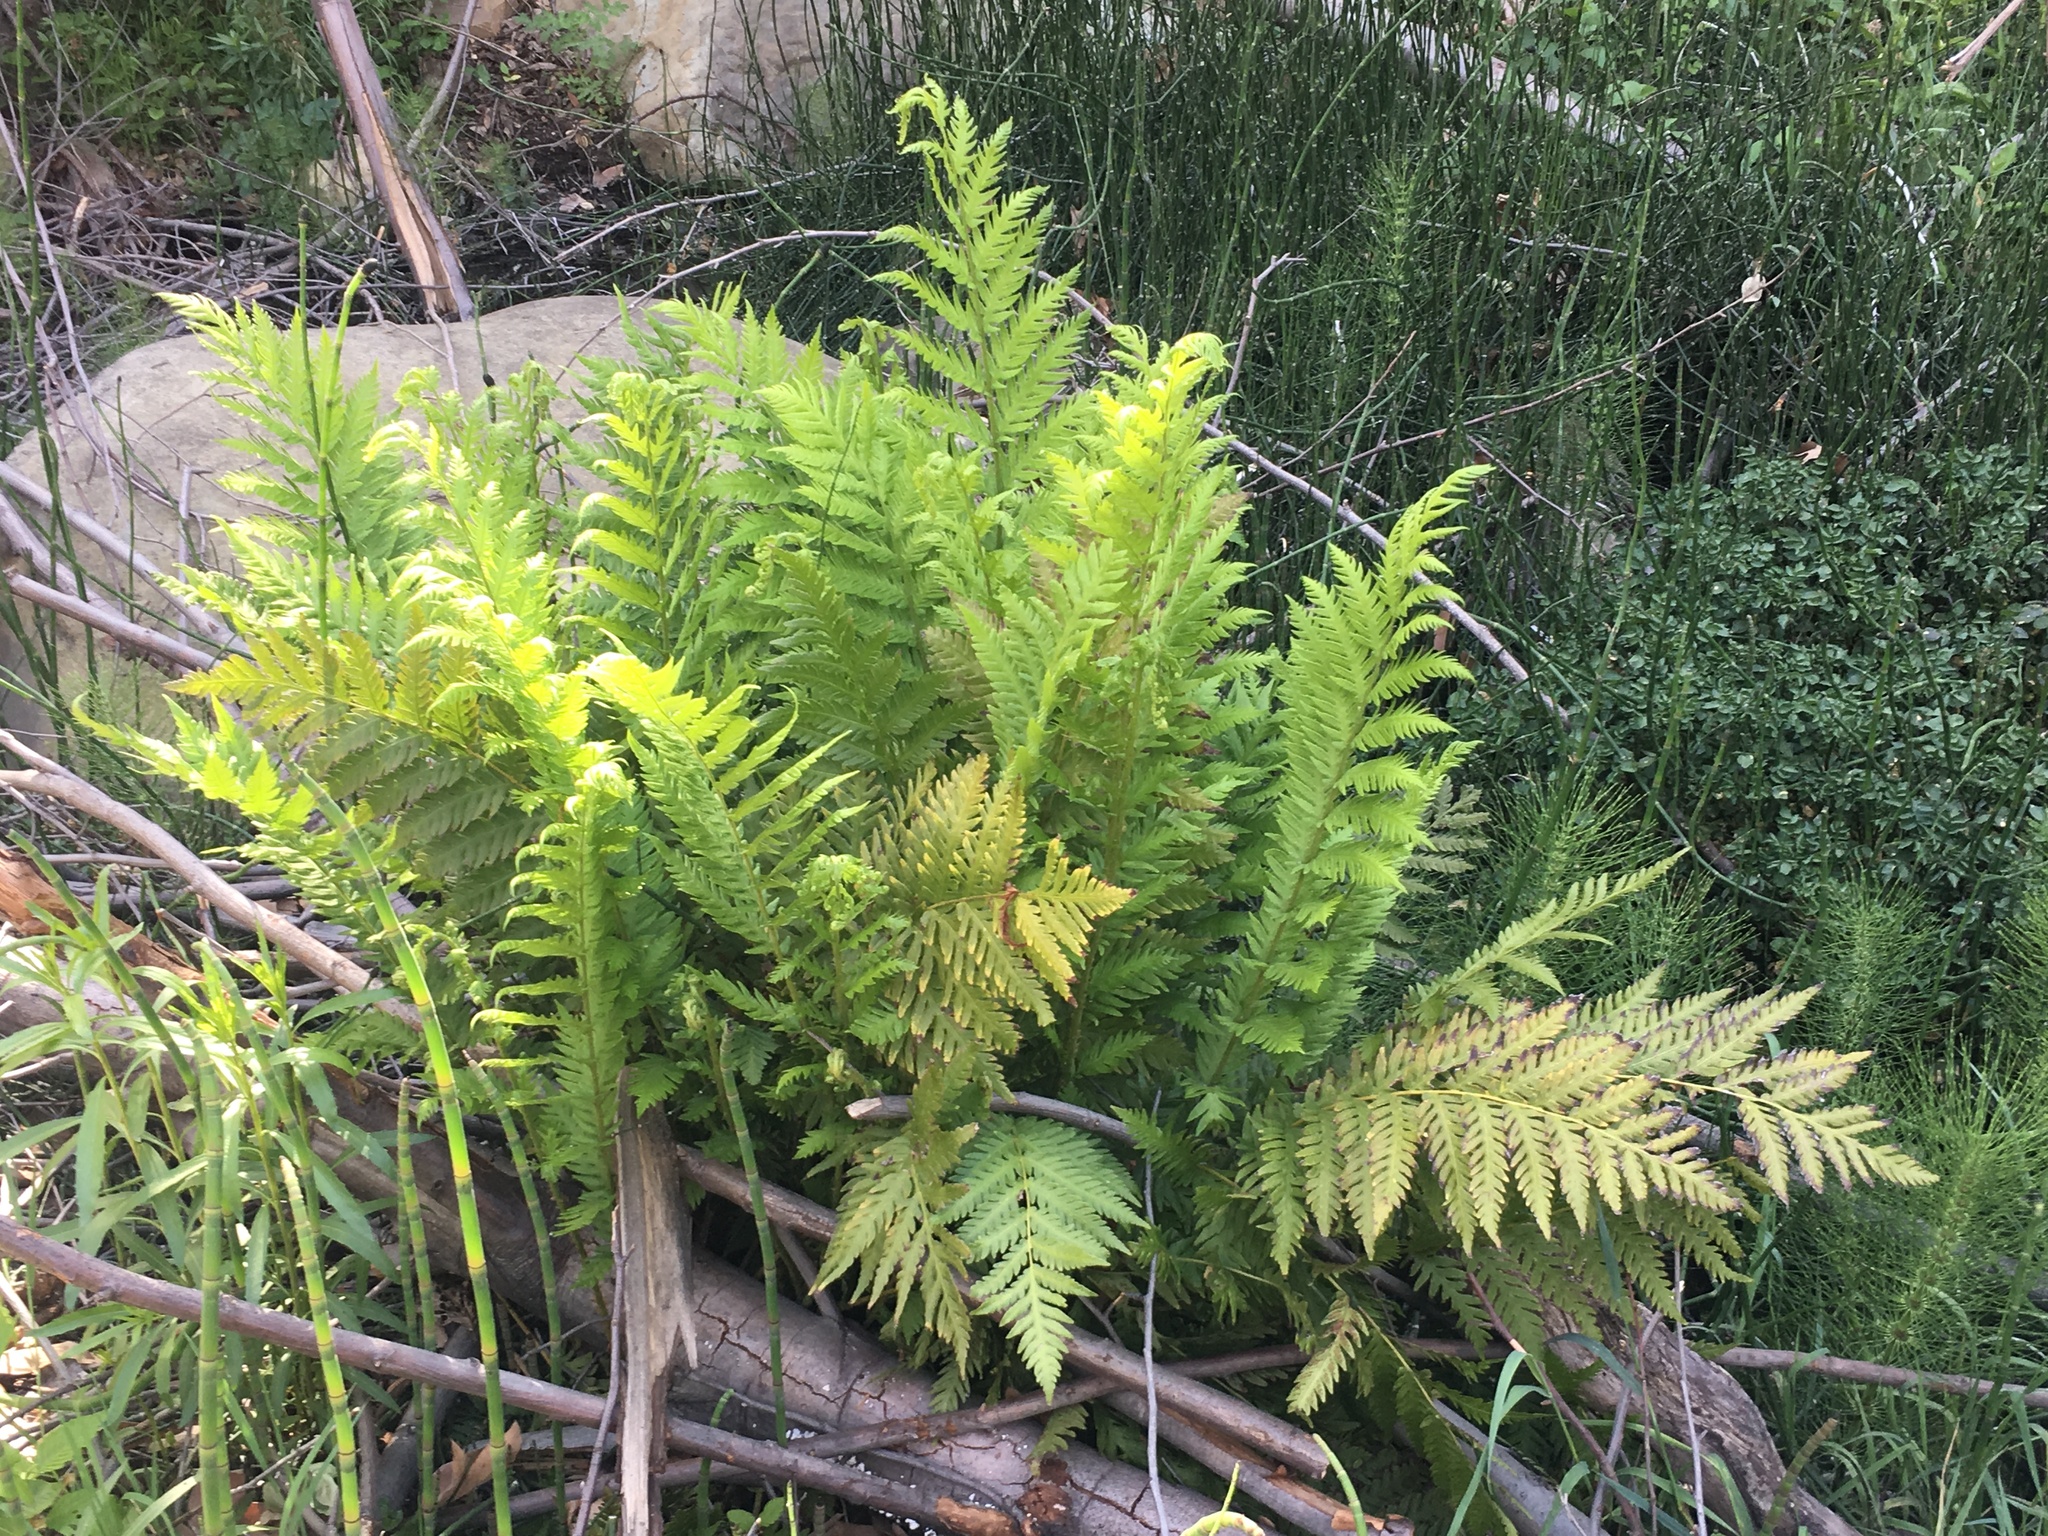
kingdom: Plantae
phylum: Tracheophyta
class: Polypodiopsida
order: Polypodiales
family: Blechnaceae
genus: Woodwardia
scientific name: Woodwardia fimbriata
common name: Giant chain fern
